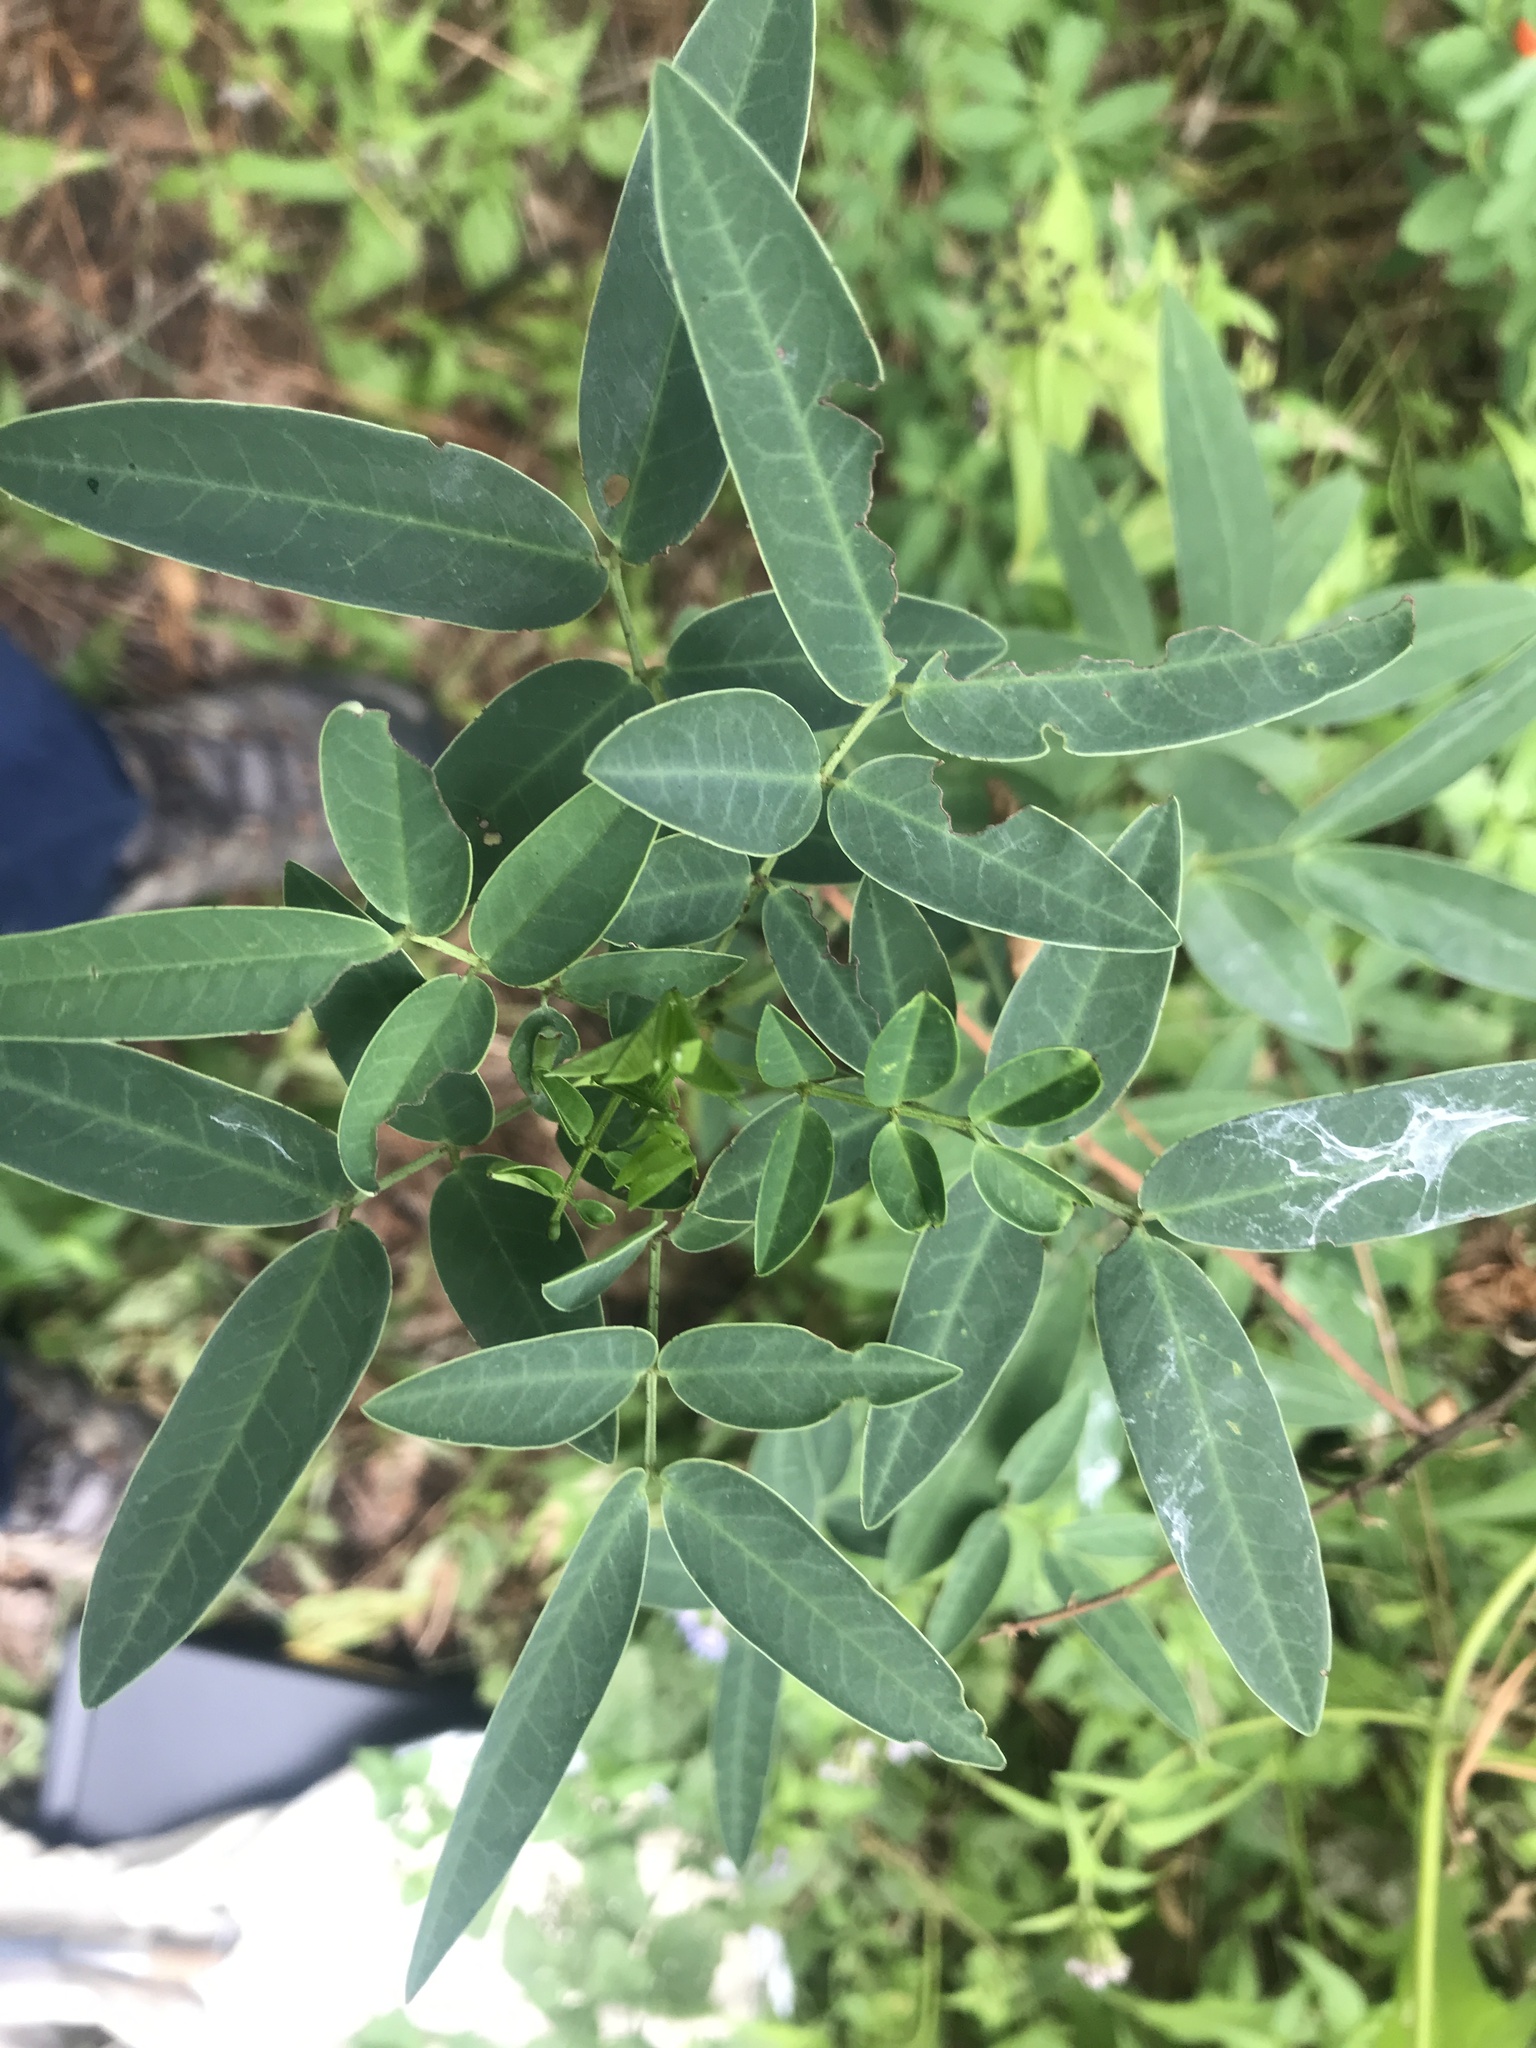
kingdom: Plantae
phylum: Tracheophyta
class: Magnoliopsida
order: Fabales
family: Fabaceae
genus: Senna
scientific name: Senna corymbosa
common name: Argentine senna
